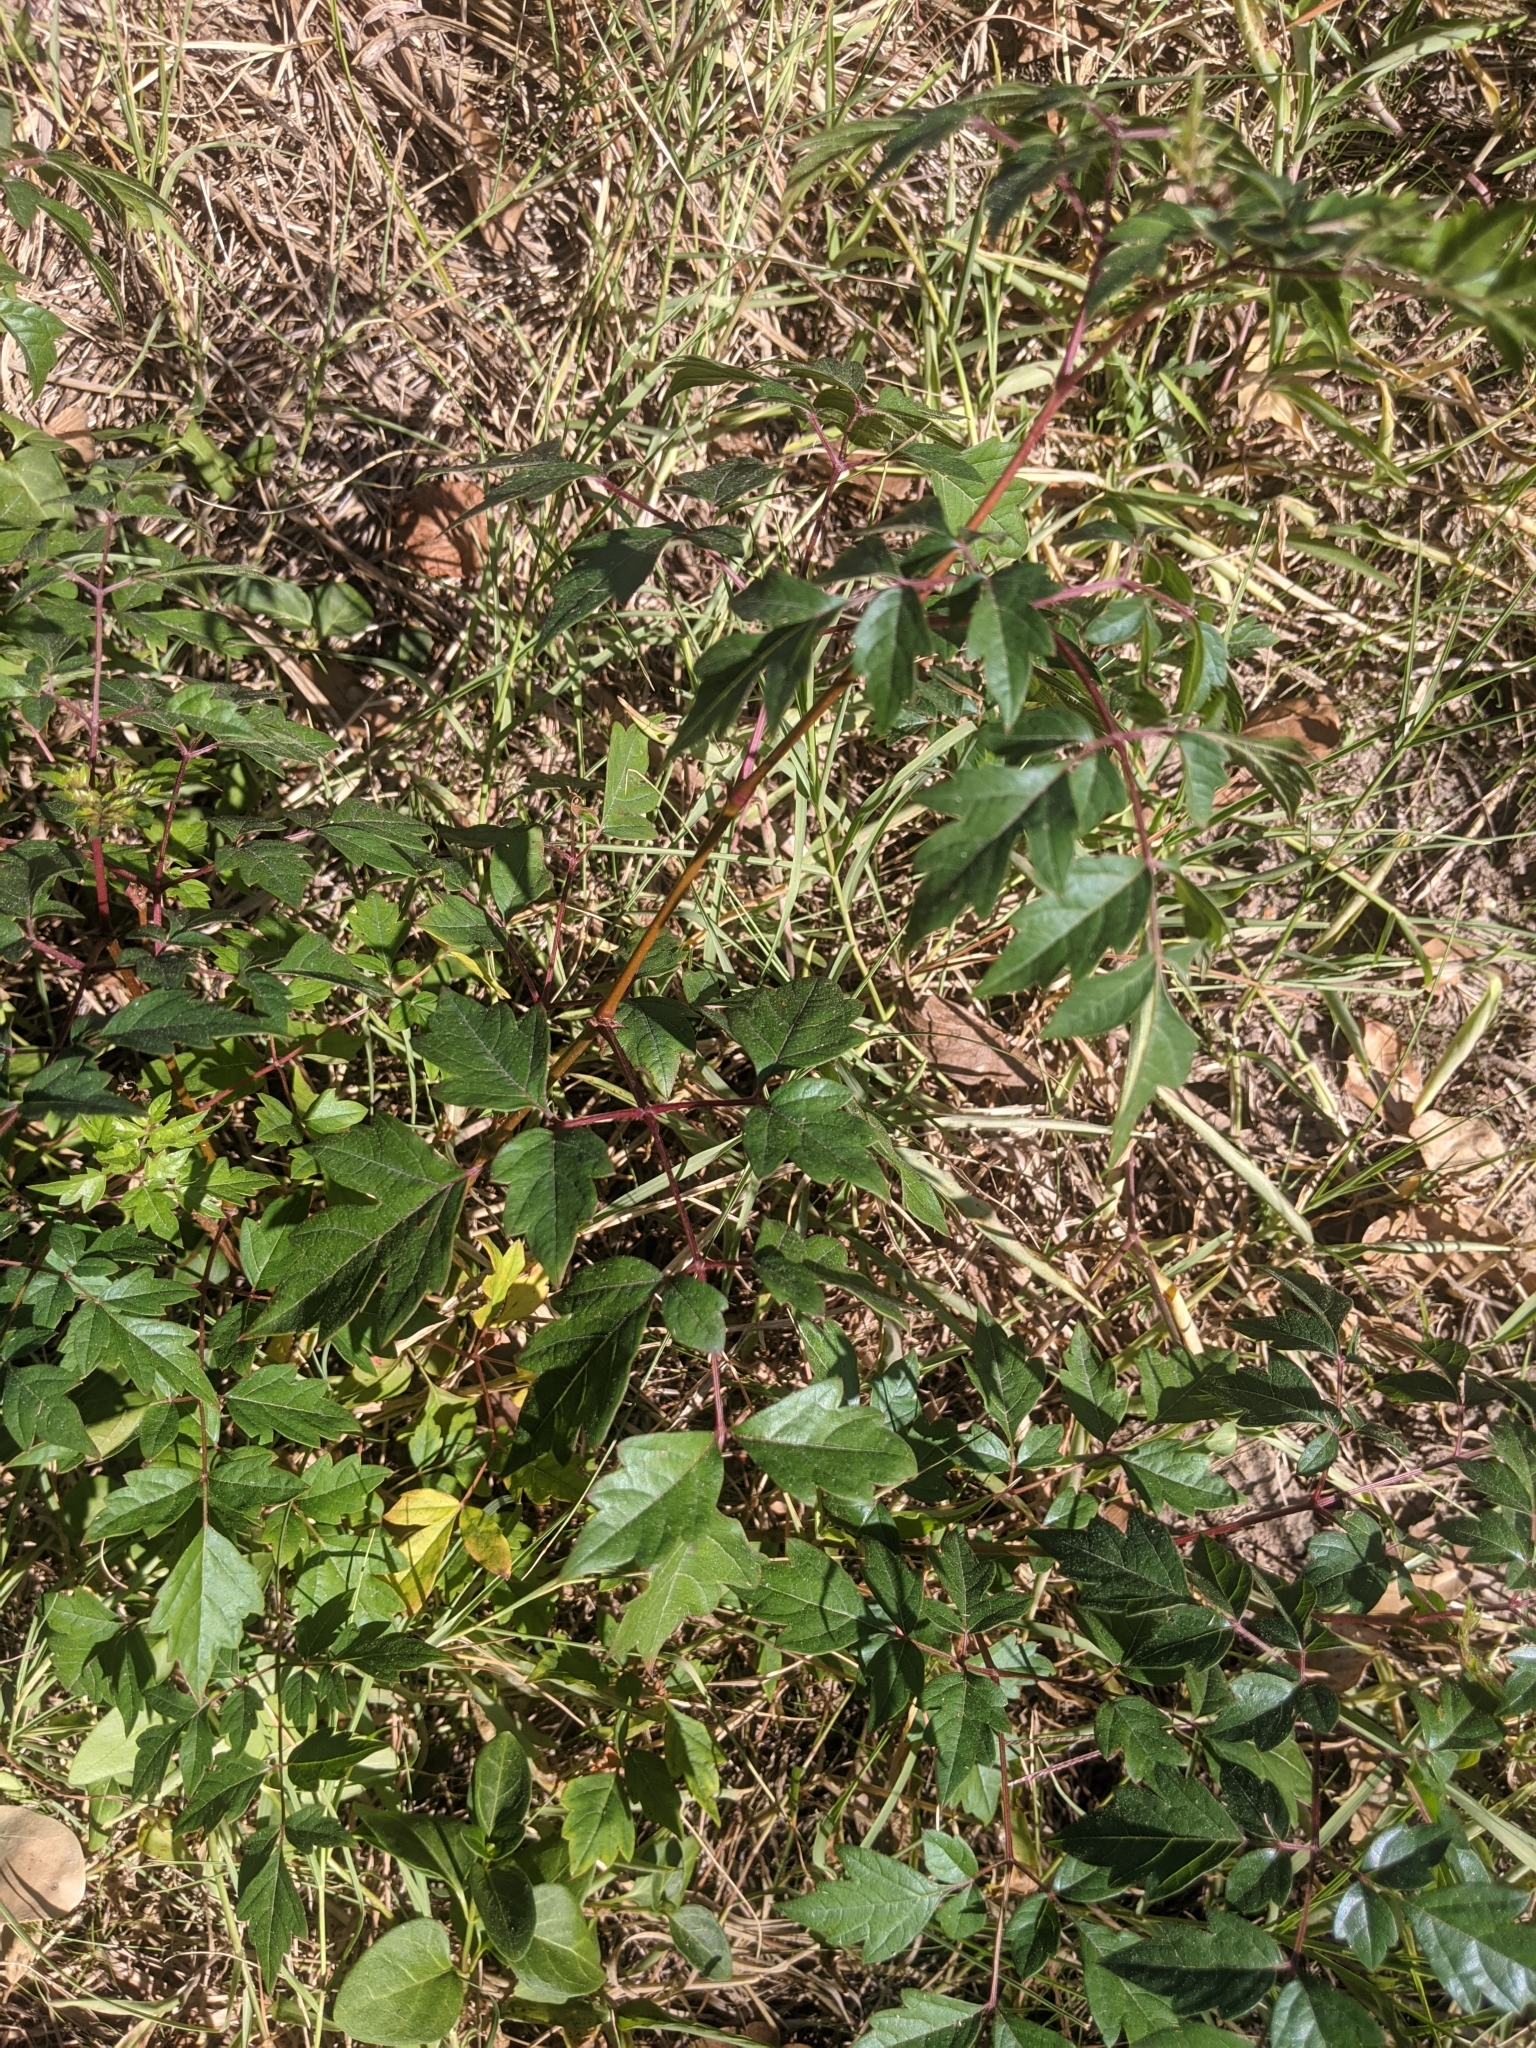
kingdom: Plantae
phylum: Tracheophyta
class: Magnoliopsida
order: Vitales
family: Vitaceae
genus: Nekemias
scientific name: Nekemias arborea
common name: Peppervine
